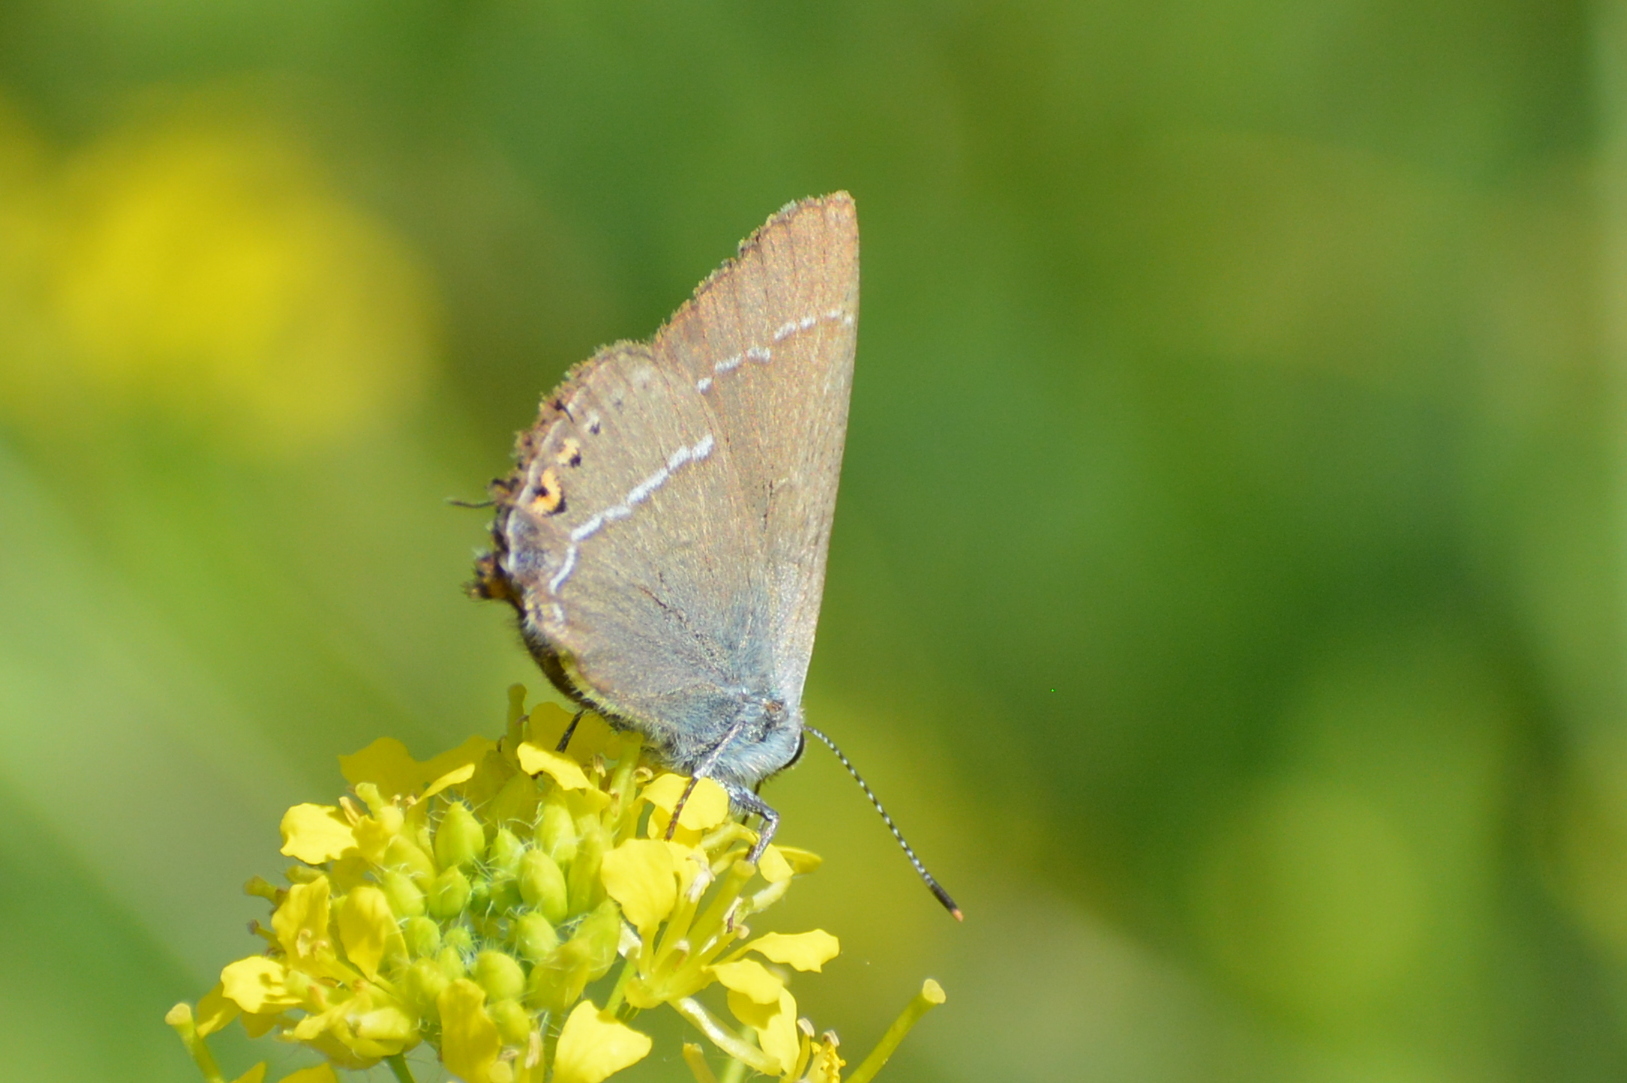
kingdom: Animalia
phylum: Arthropoda
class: Insecta
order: Lepidoptera
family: Lycaenidae
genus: Tuttiola
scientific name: Tuttiola spini
